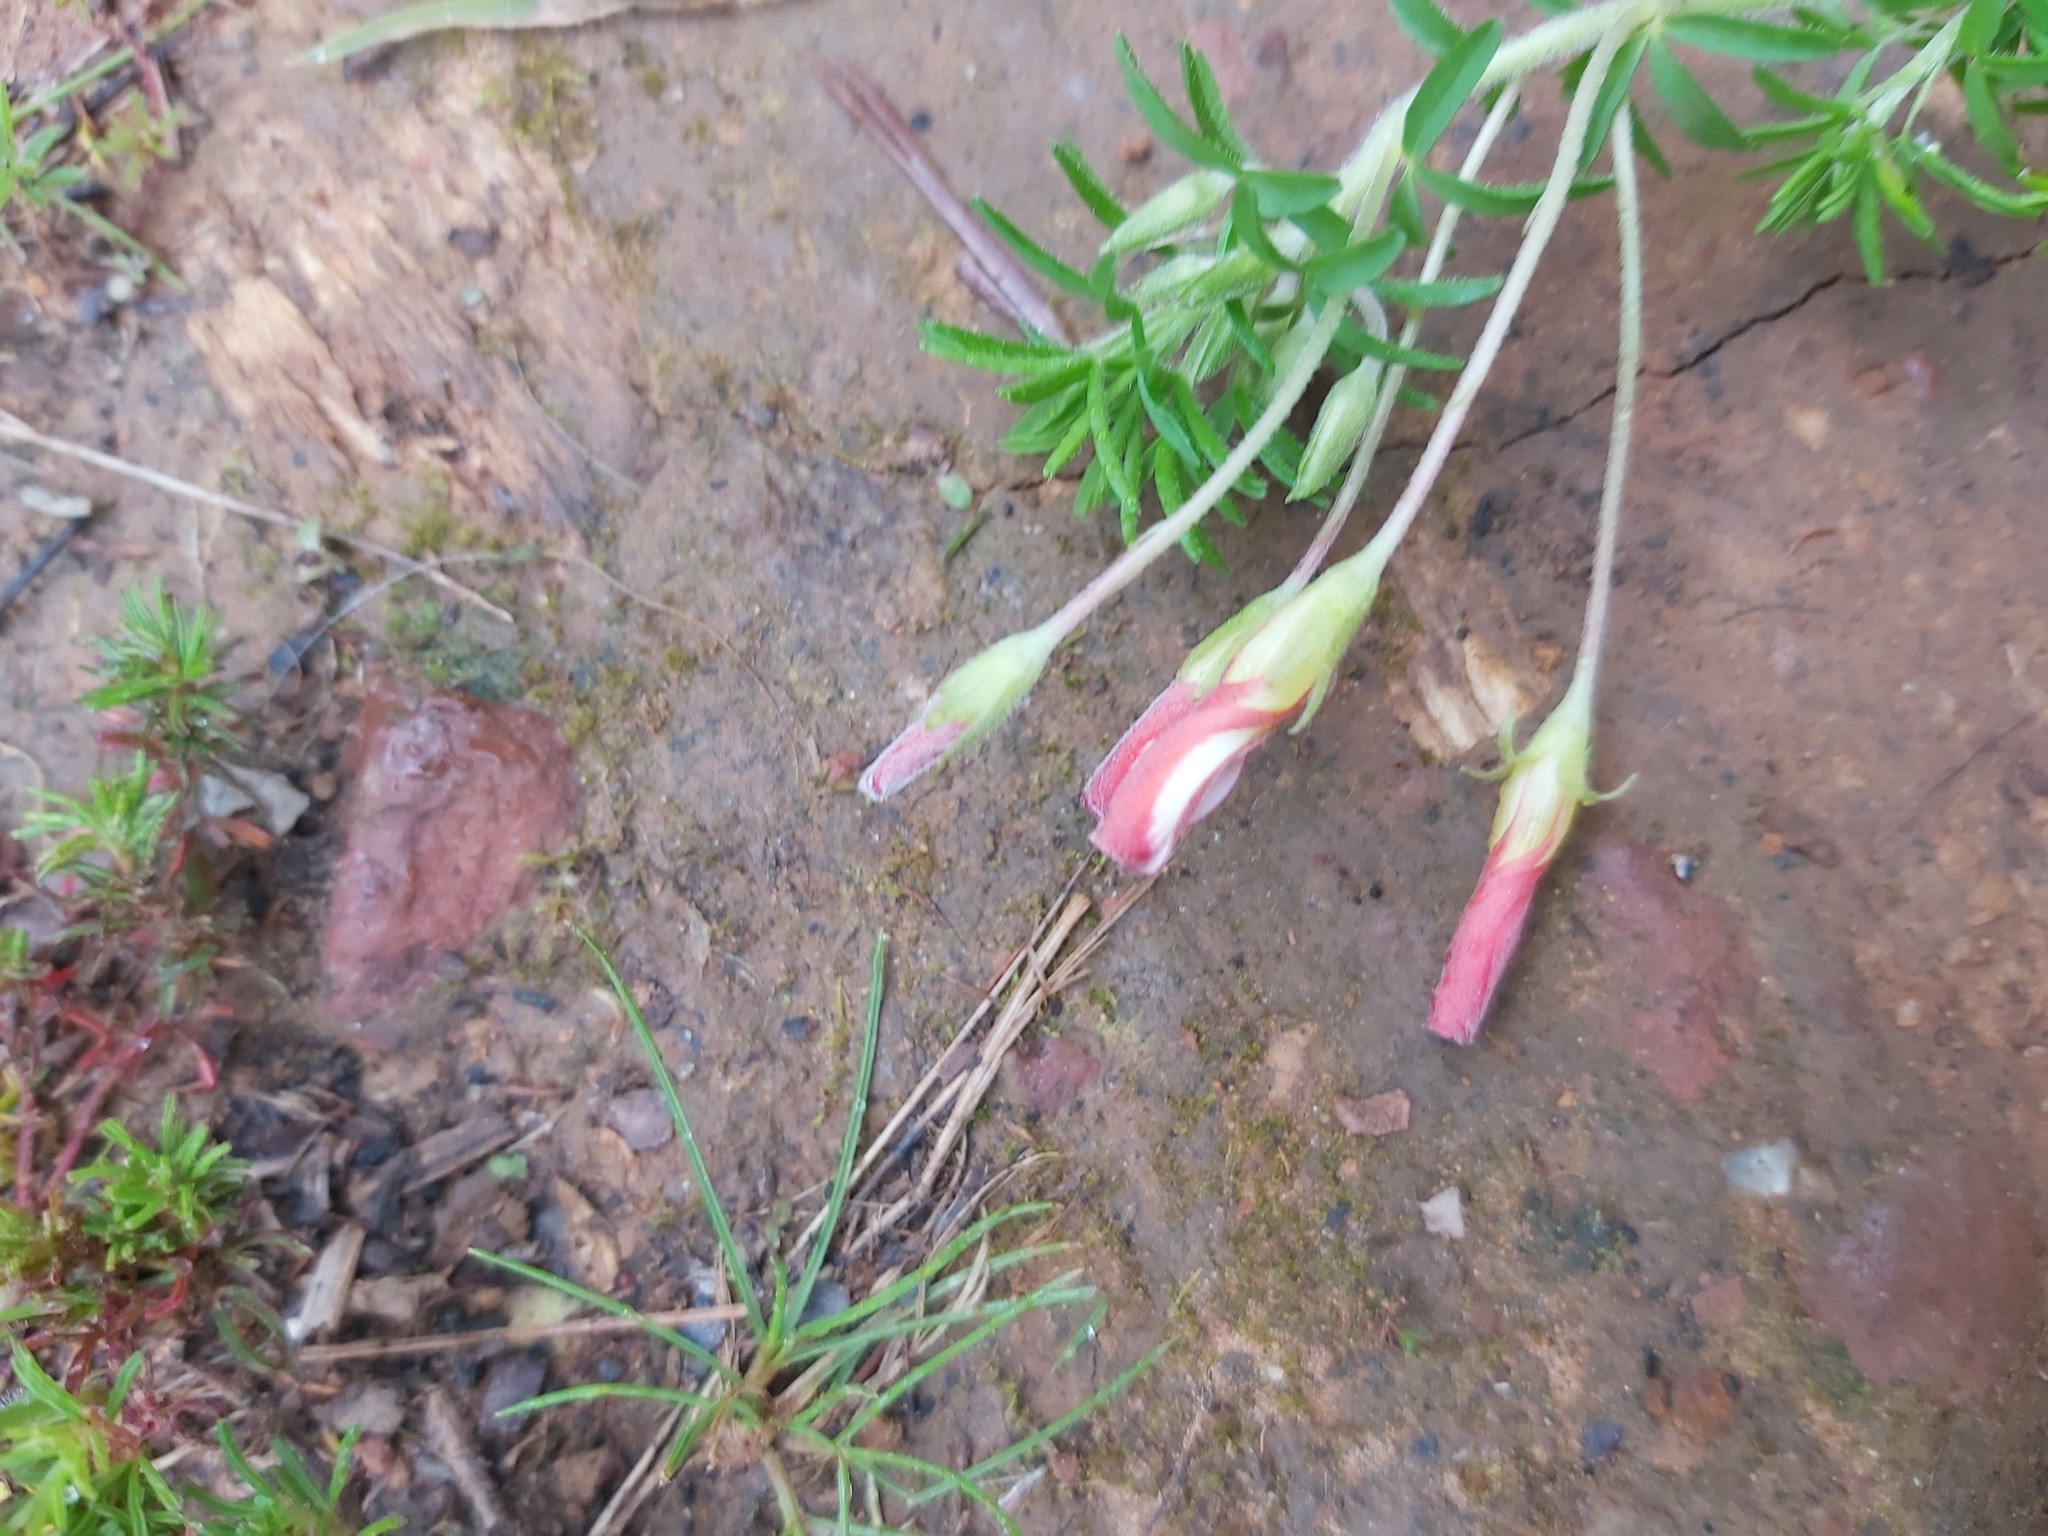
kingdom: Plantae
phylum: Tracheophyta
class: Magnoliopsida
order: Oxalidales
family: Oxalidaceae
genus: Oxalis
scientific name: Oxalis tenuifolia
